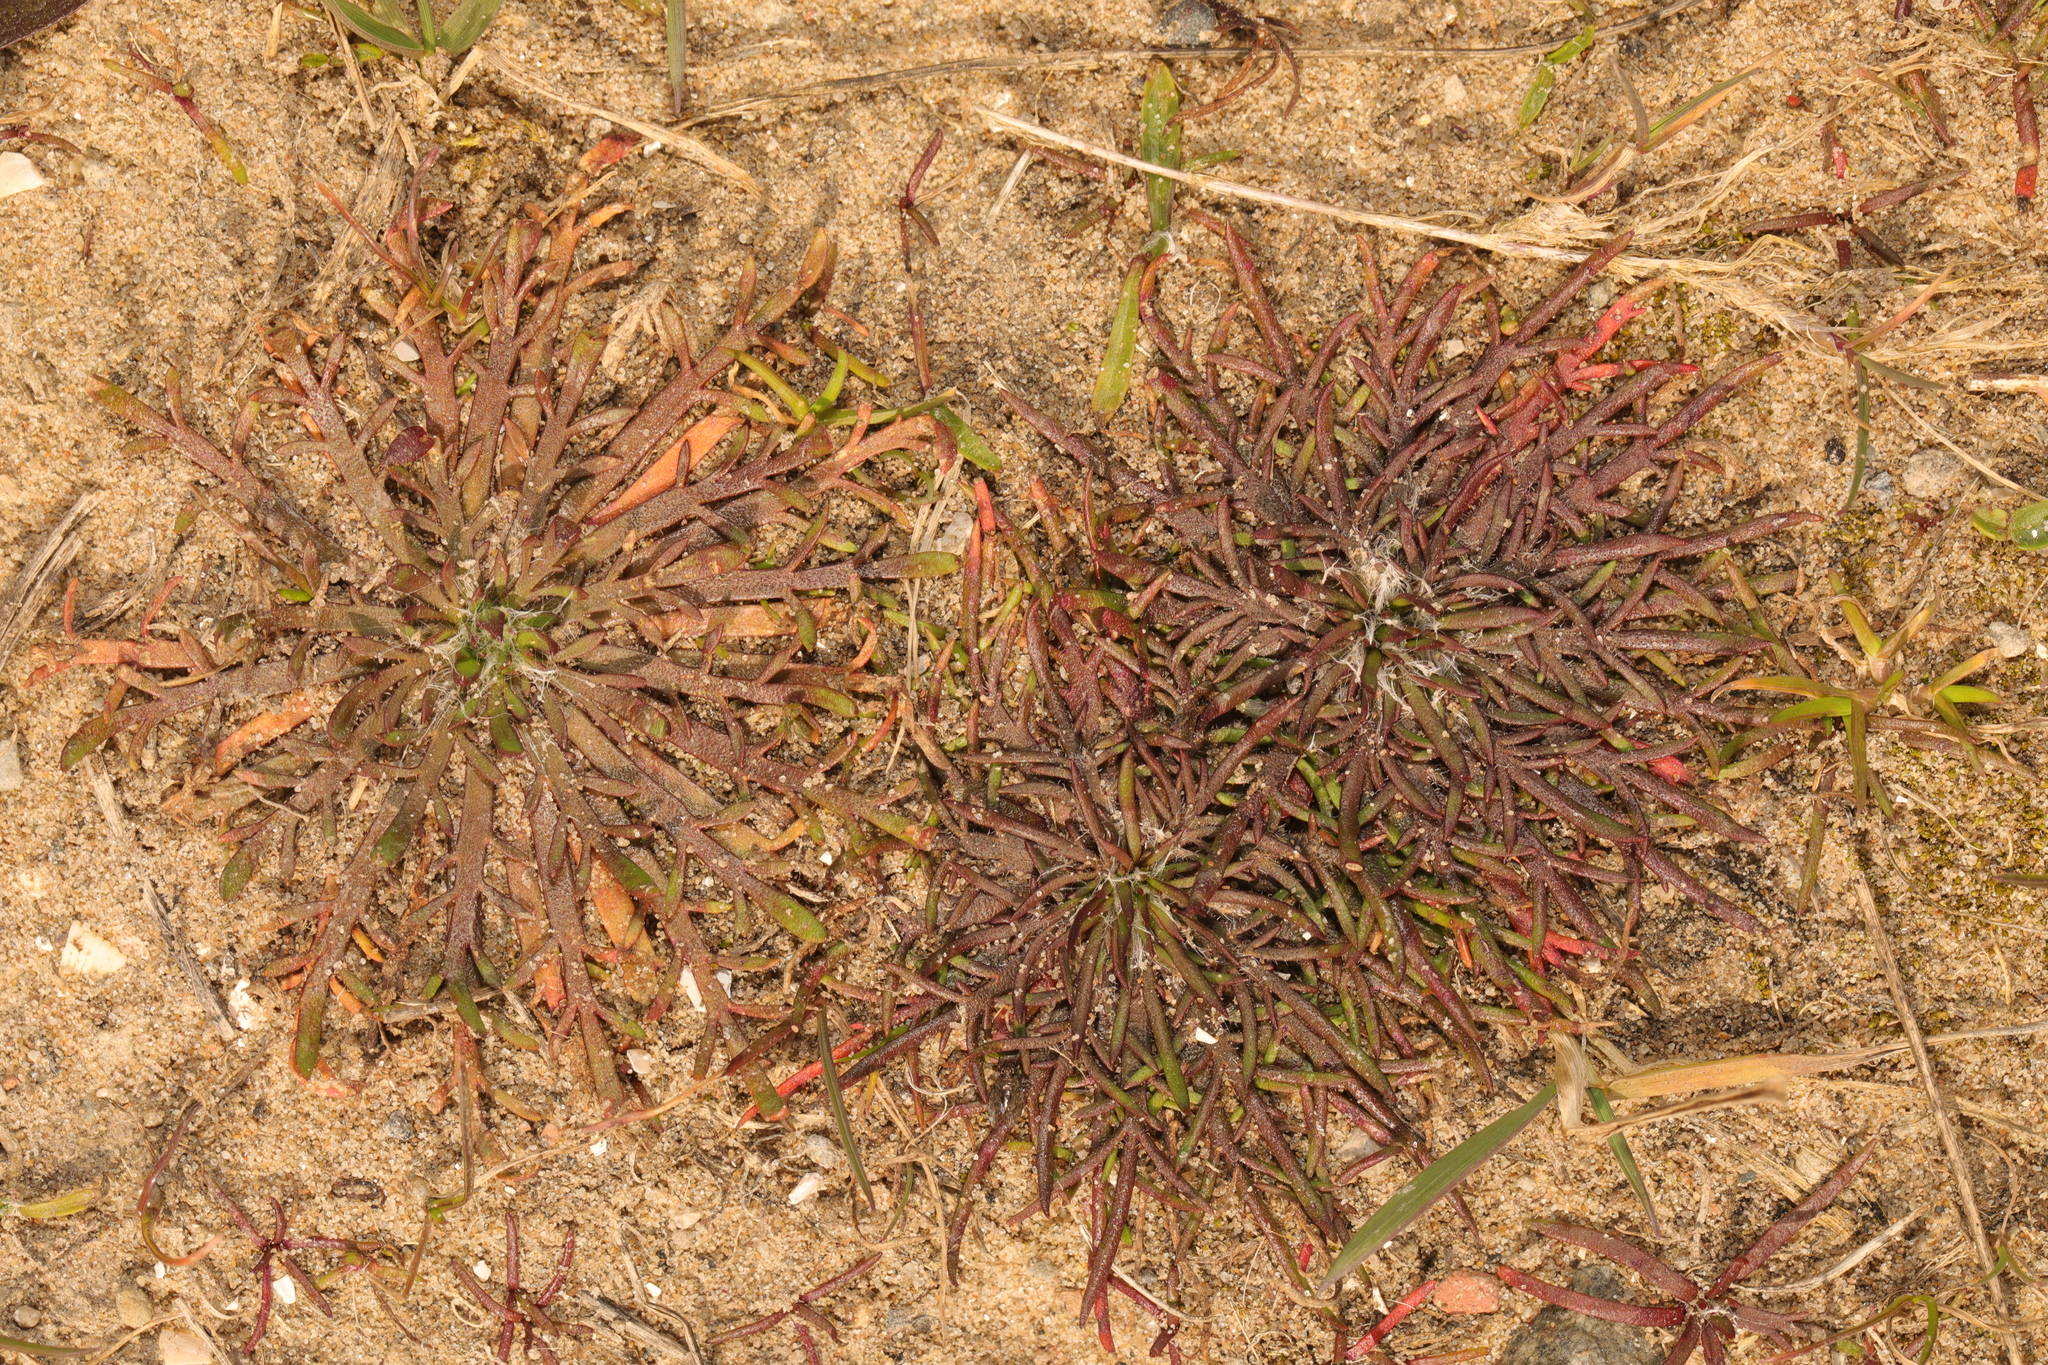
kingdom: Plantae
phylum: Tracheophyta
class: Magnoliopsida
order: Lamiales
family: Plantaginaceae
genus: Plantago
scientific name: Plantago coronopus
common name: Buck's-horn plantain
